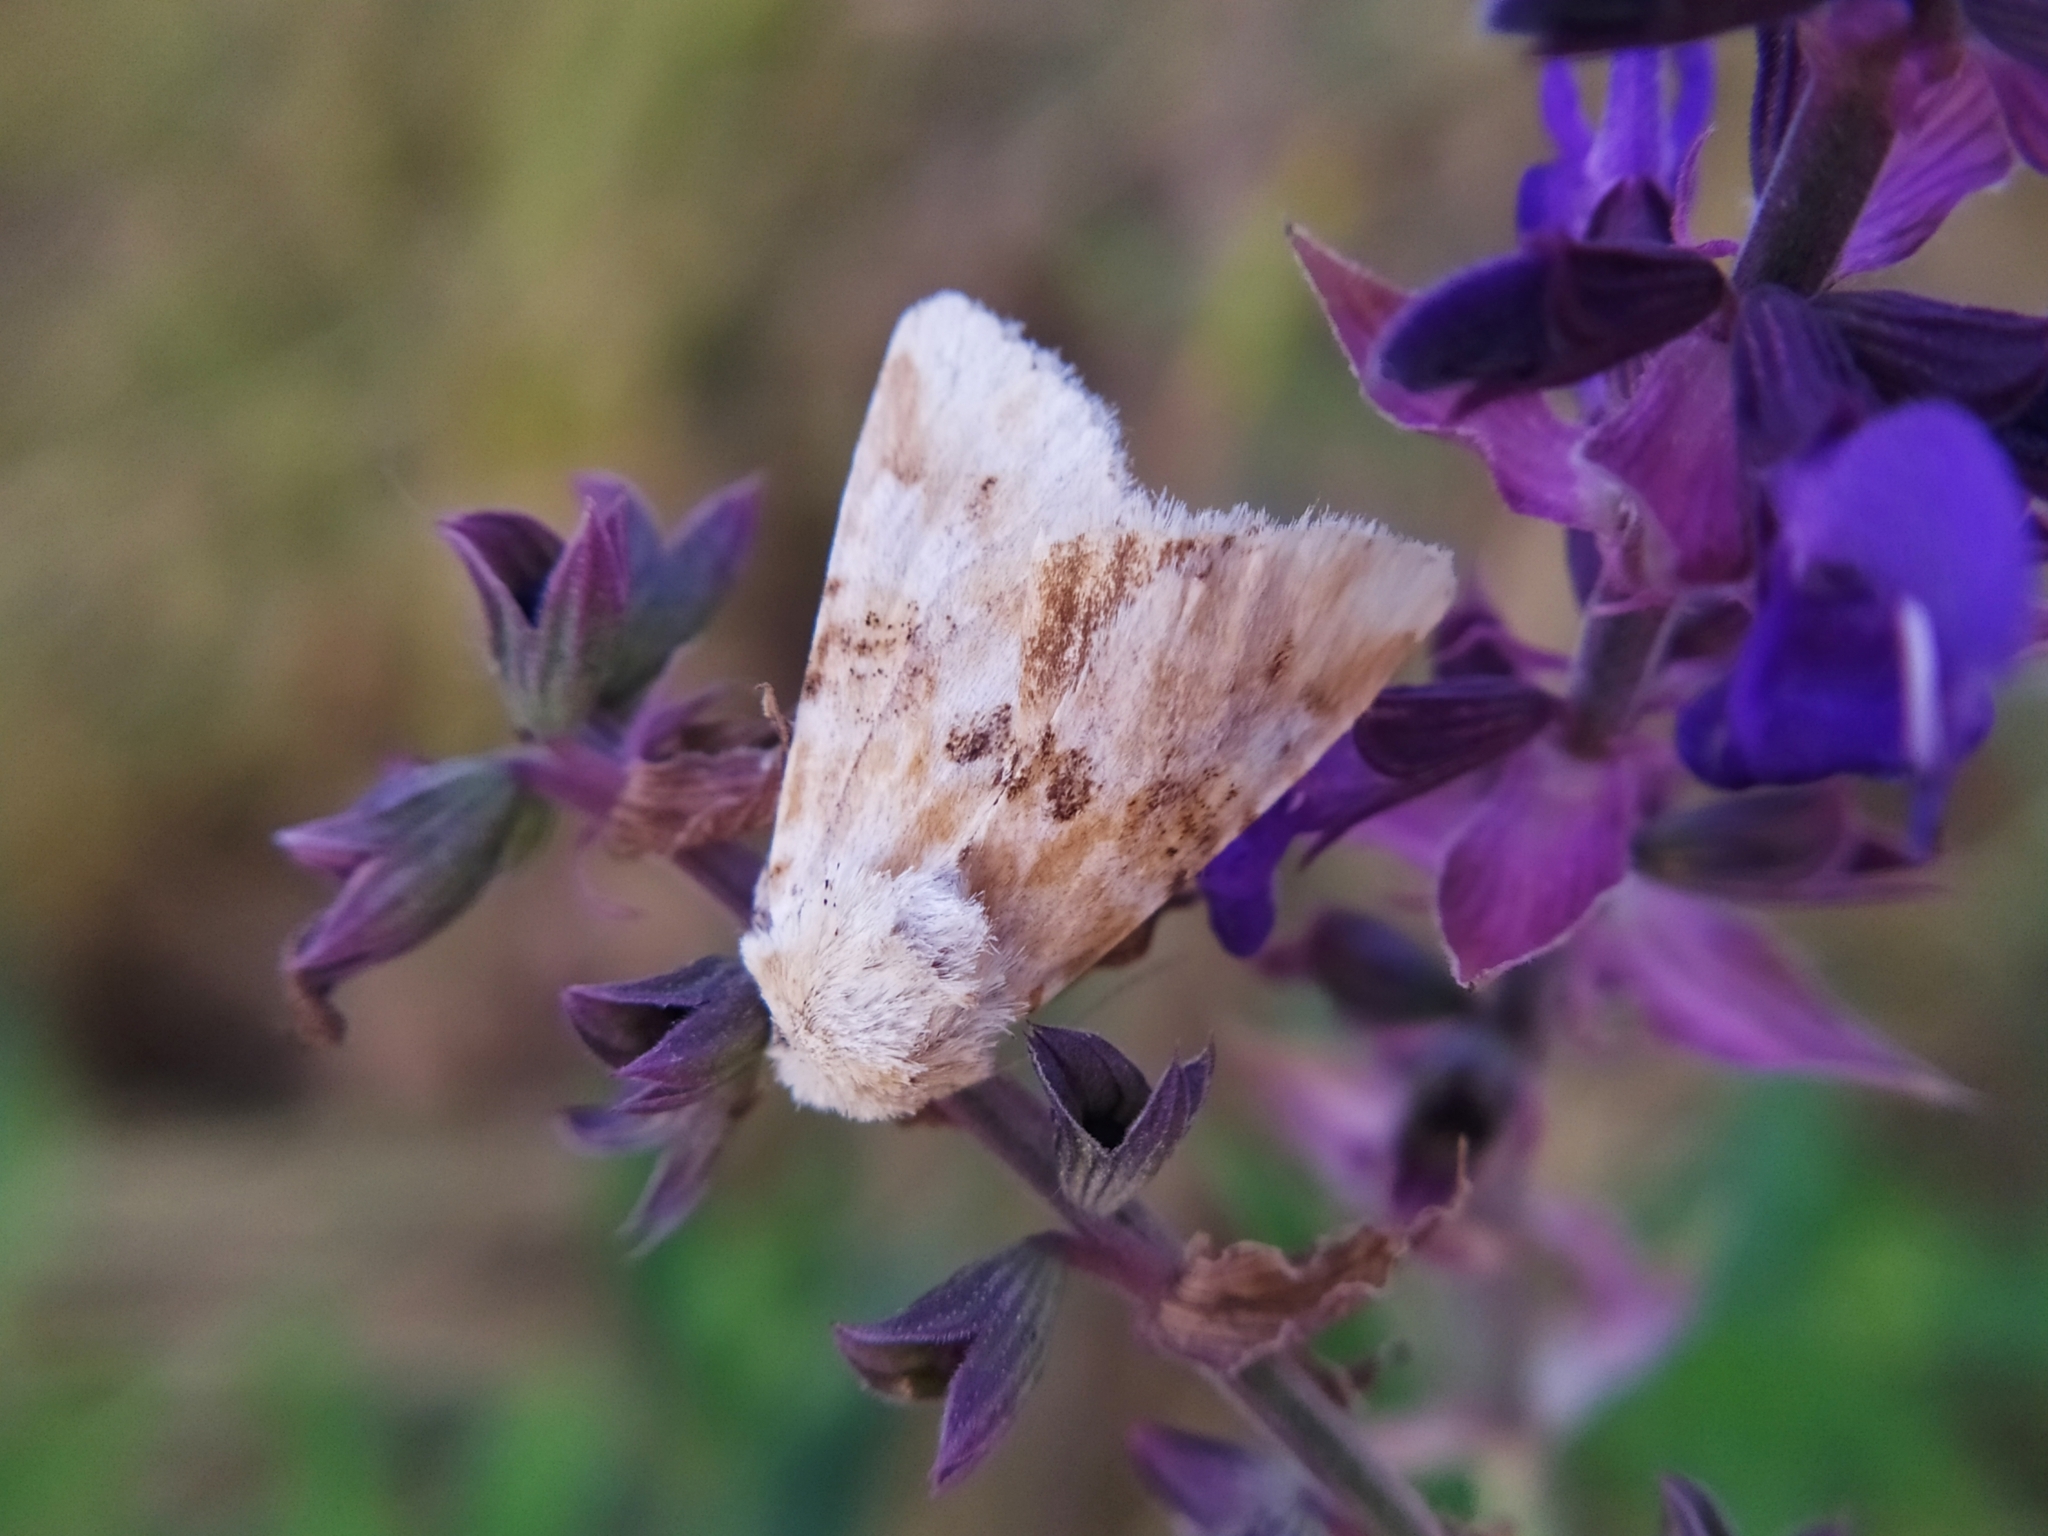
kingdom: Animalia
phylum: Arthropoda
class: Insecta
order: Lepidoptera
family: Noctuidae
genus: Eremobia
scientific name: Eremobia ochroleuca
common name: Dusky sallow
